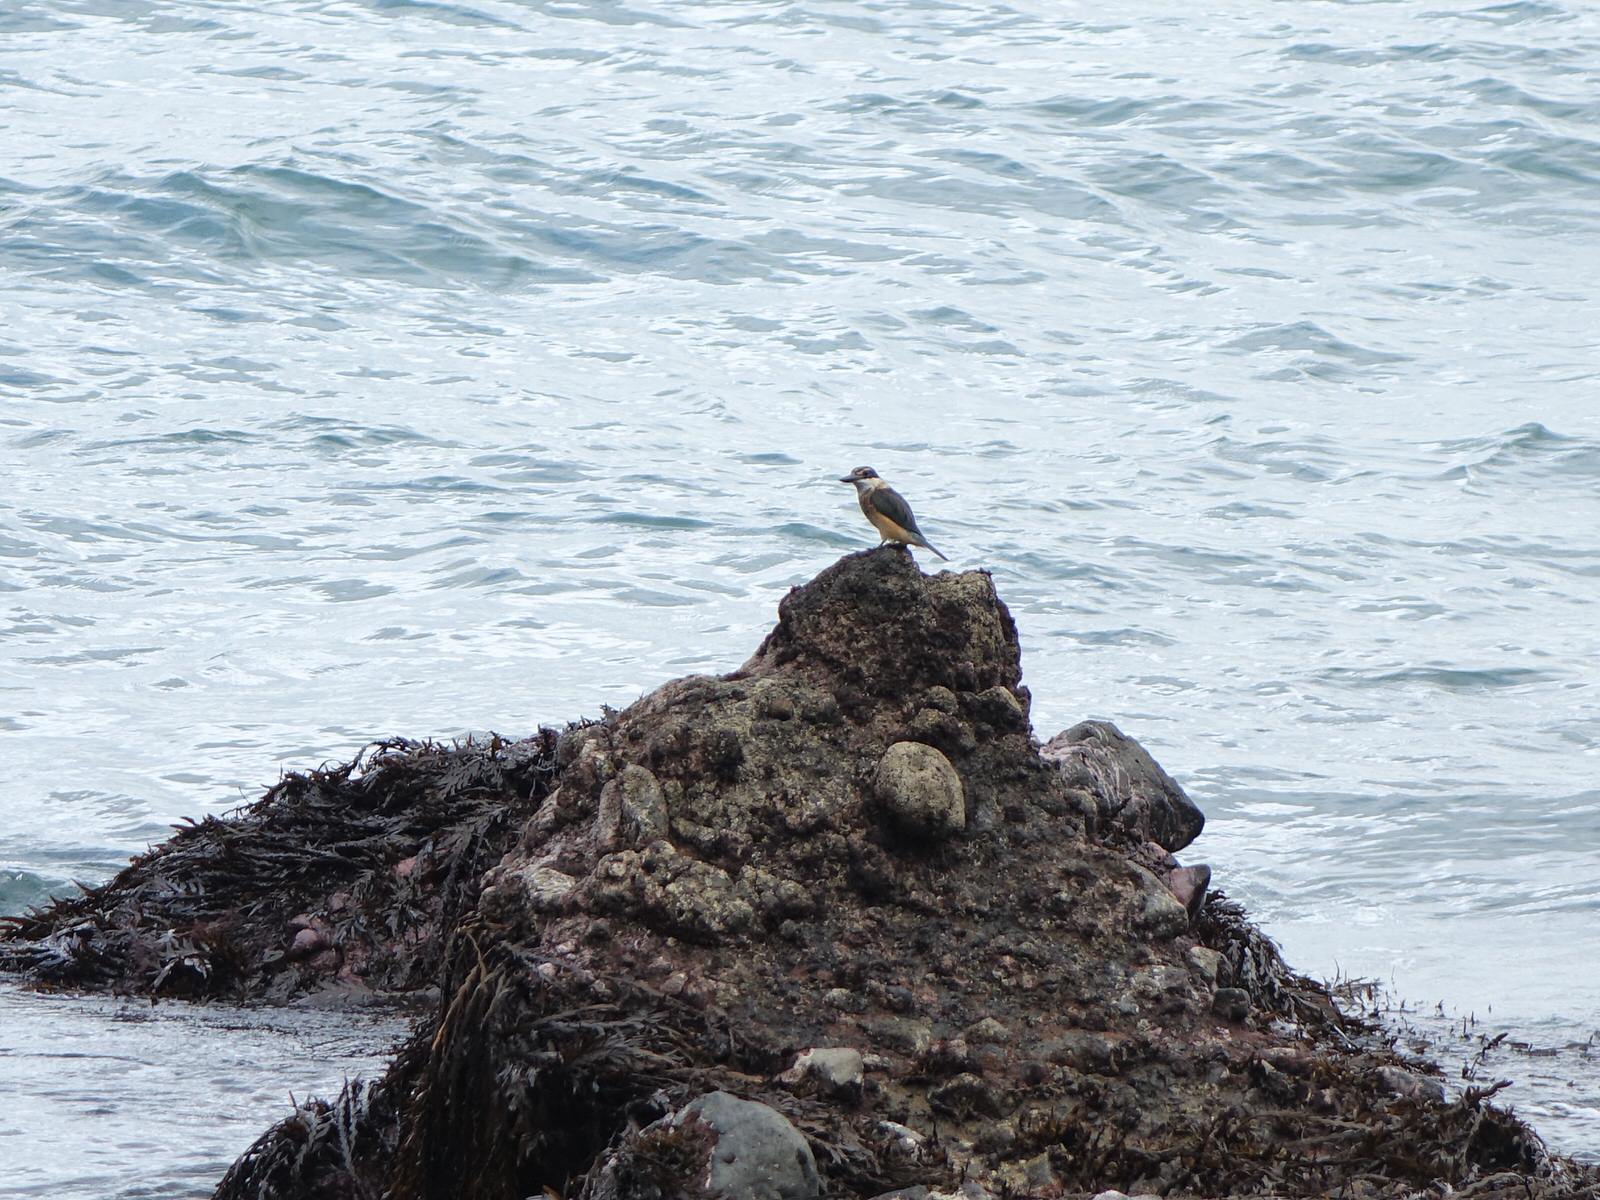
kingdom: Animalia
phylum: Chordata
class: Aves
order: Coraciiformes
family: Alcedinidae
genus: Todiramphus
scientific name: Todiramphus sanctus
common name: Sacred kingfisher
